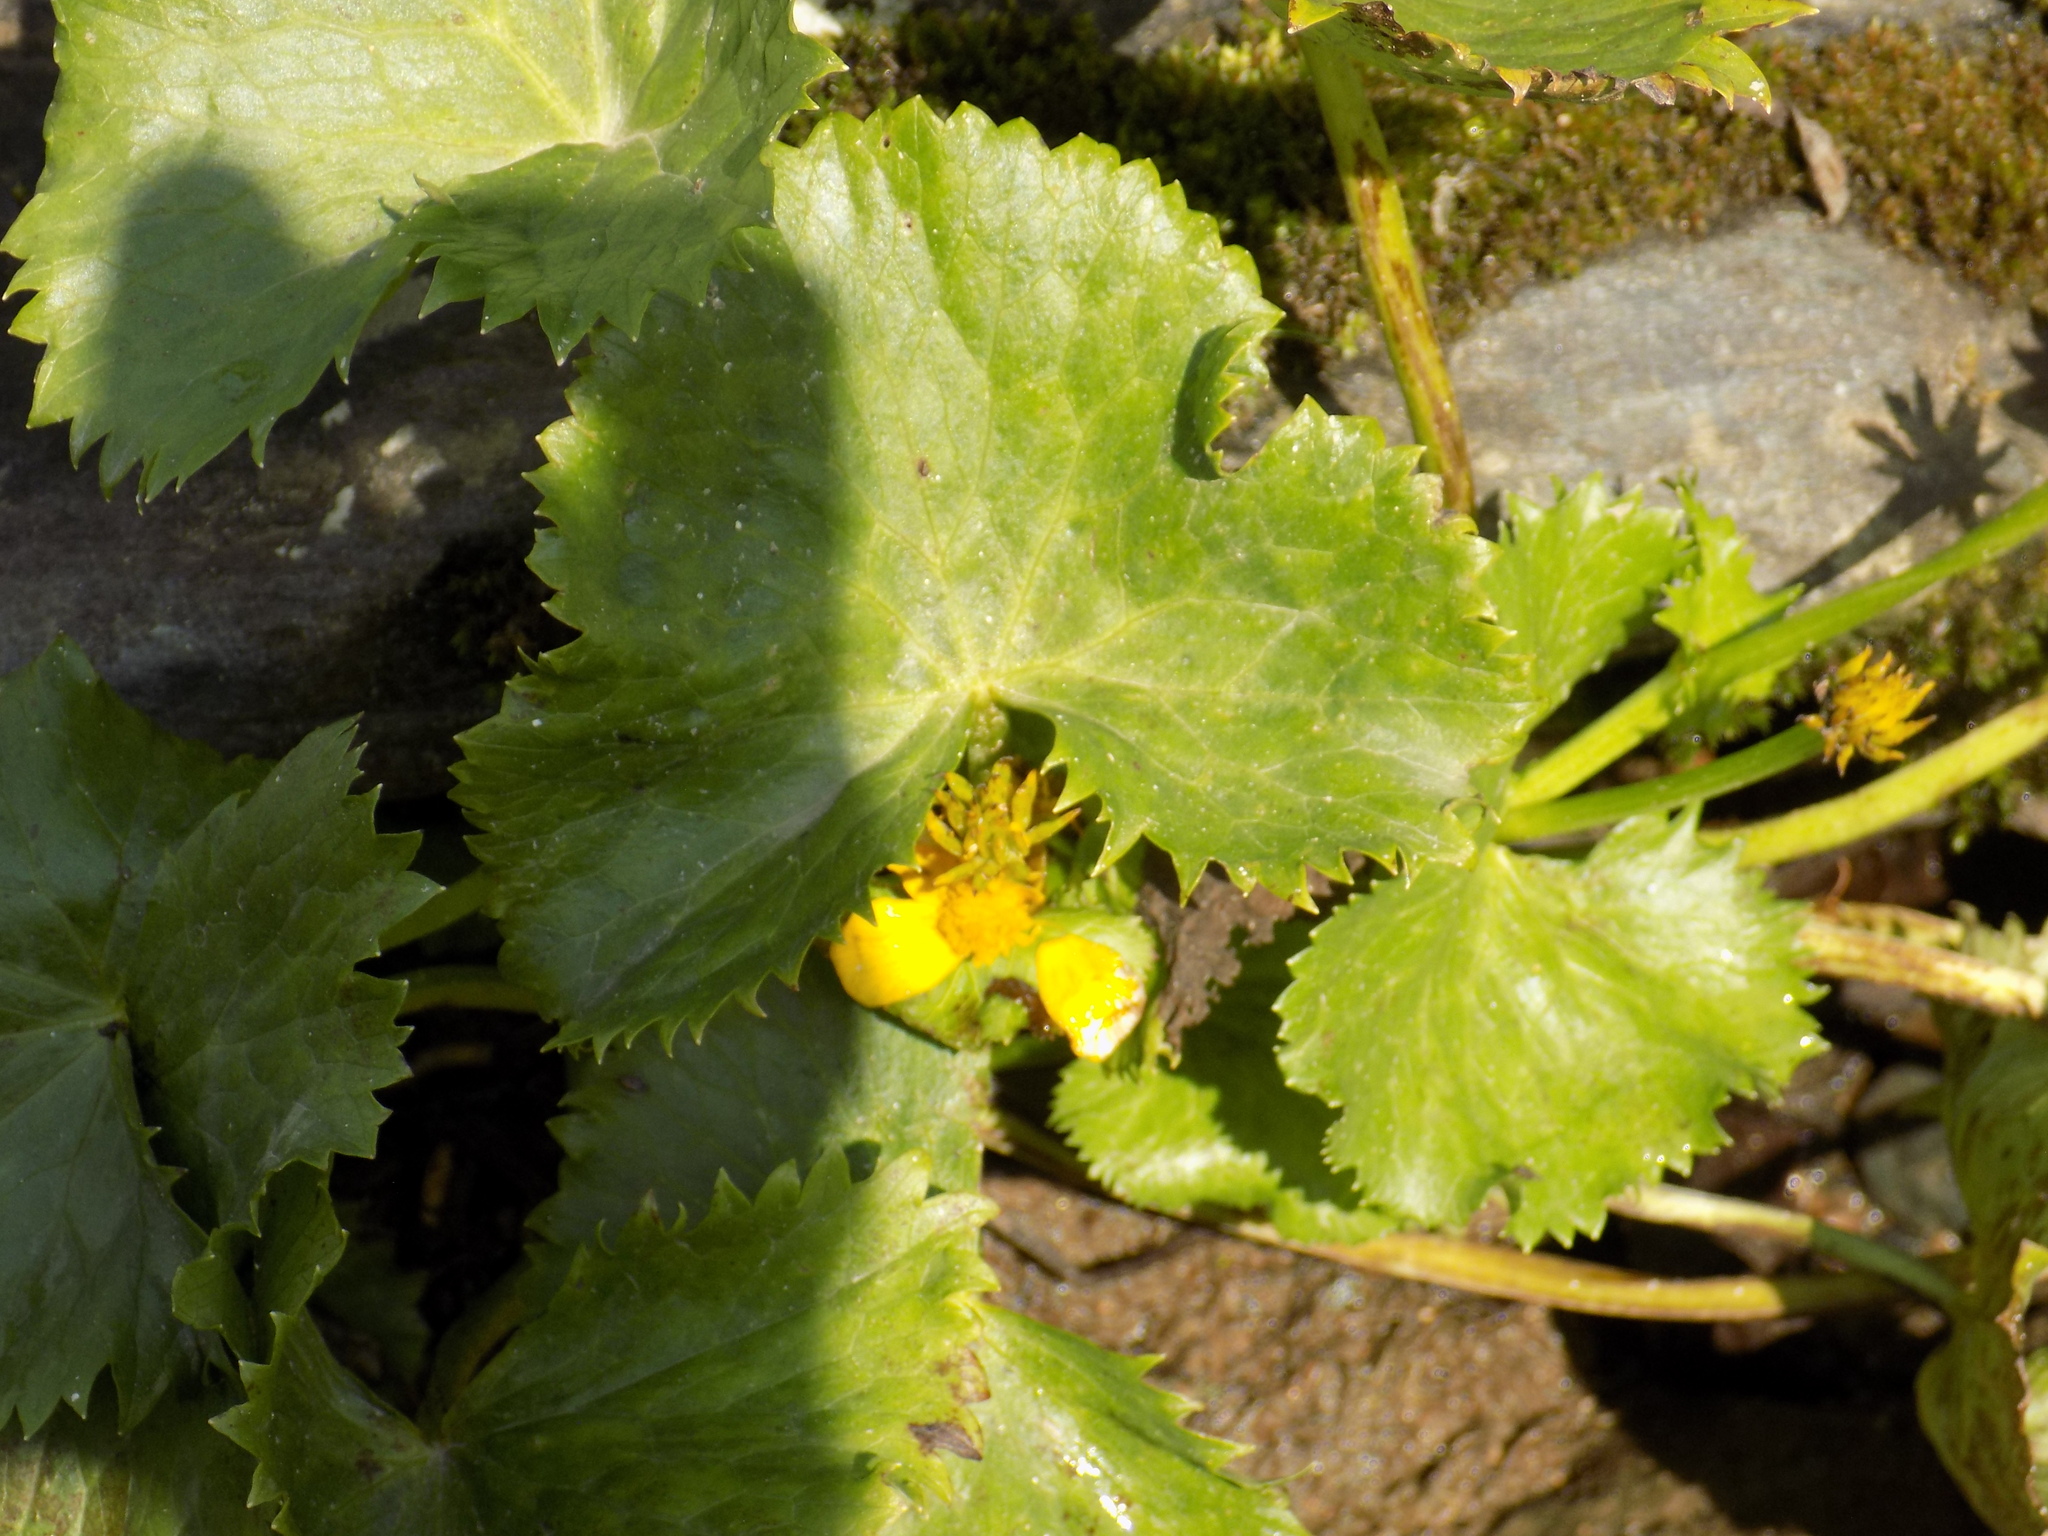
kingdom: Plantae
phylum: Tracheophyta
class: Magnoliopsida
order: Ranunculales
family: Ranunculaceae
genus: Caltha
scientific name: Caltha palustris
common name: Marsh marigold
